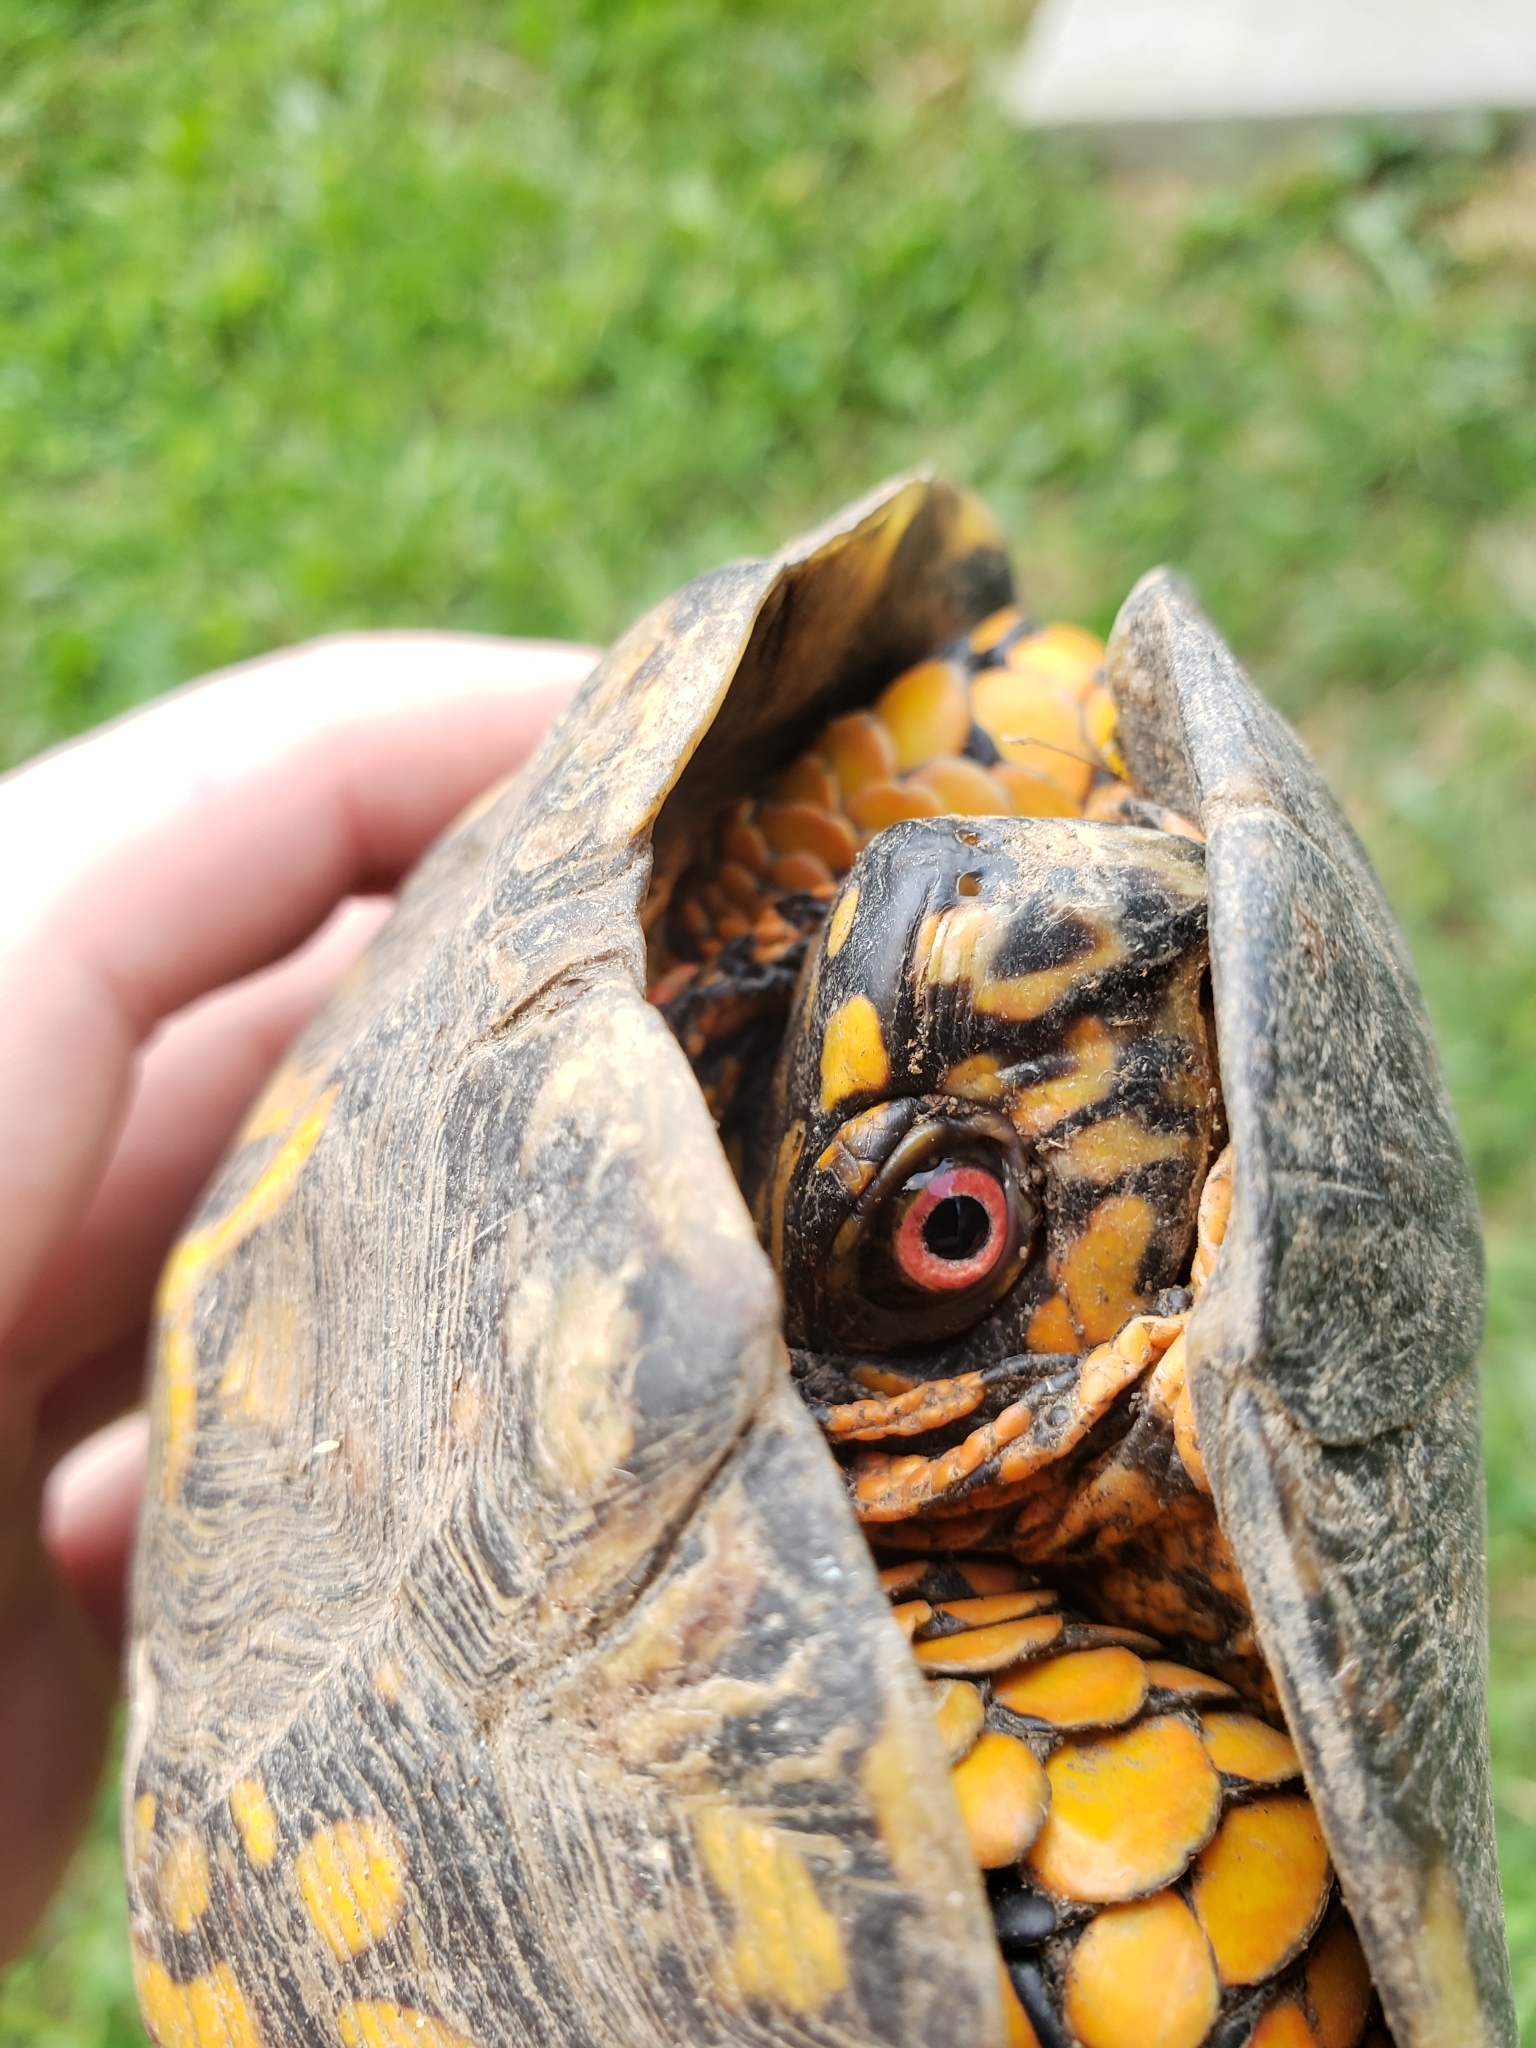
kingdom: Animalia
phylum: Chordata
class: Testudines
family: Emydidae
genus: Terrapene
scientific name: Terrapene carolina
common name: Common box turtle
